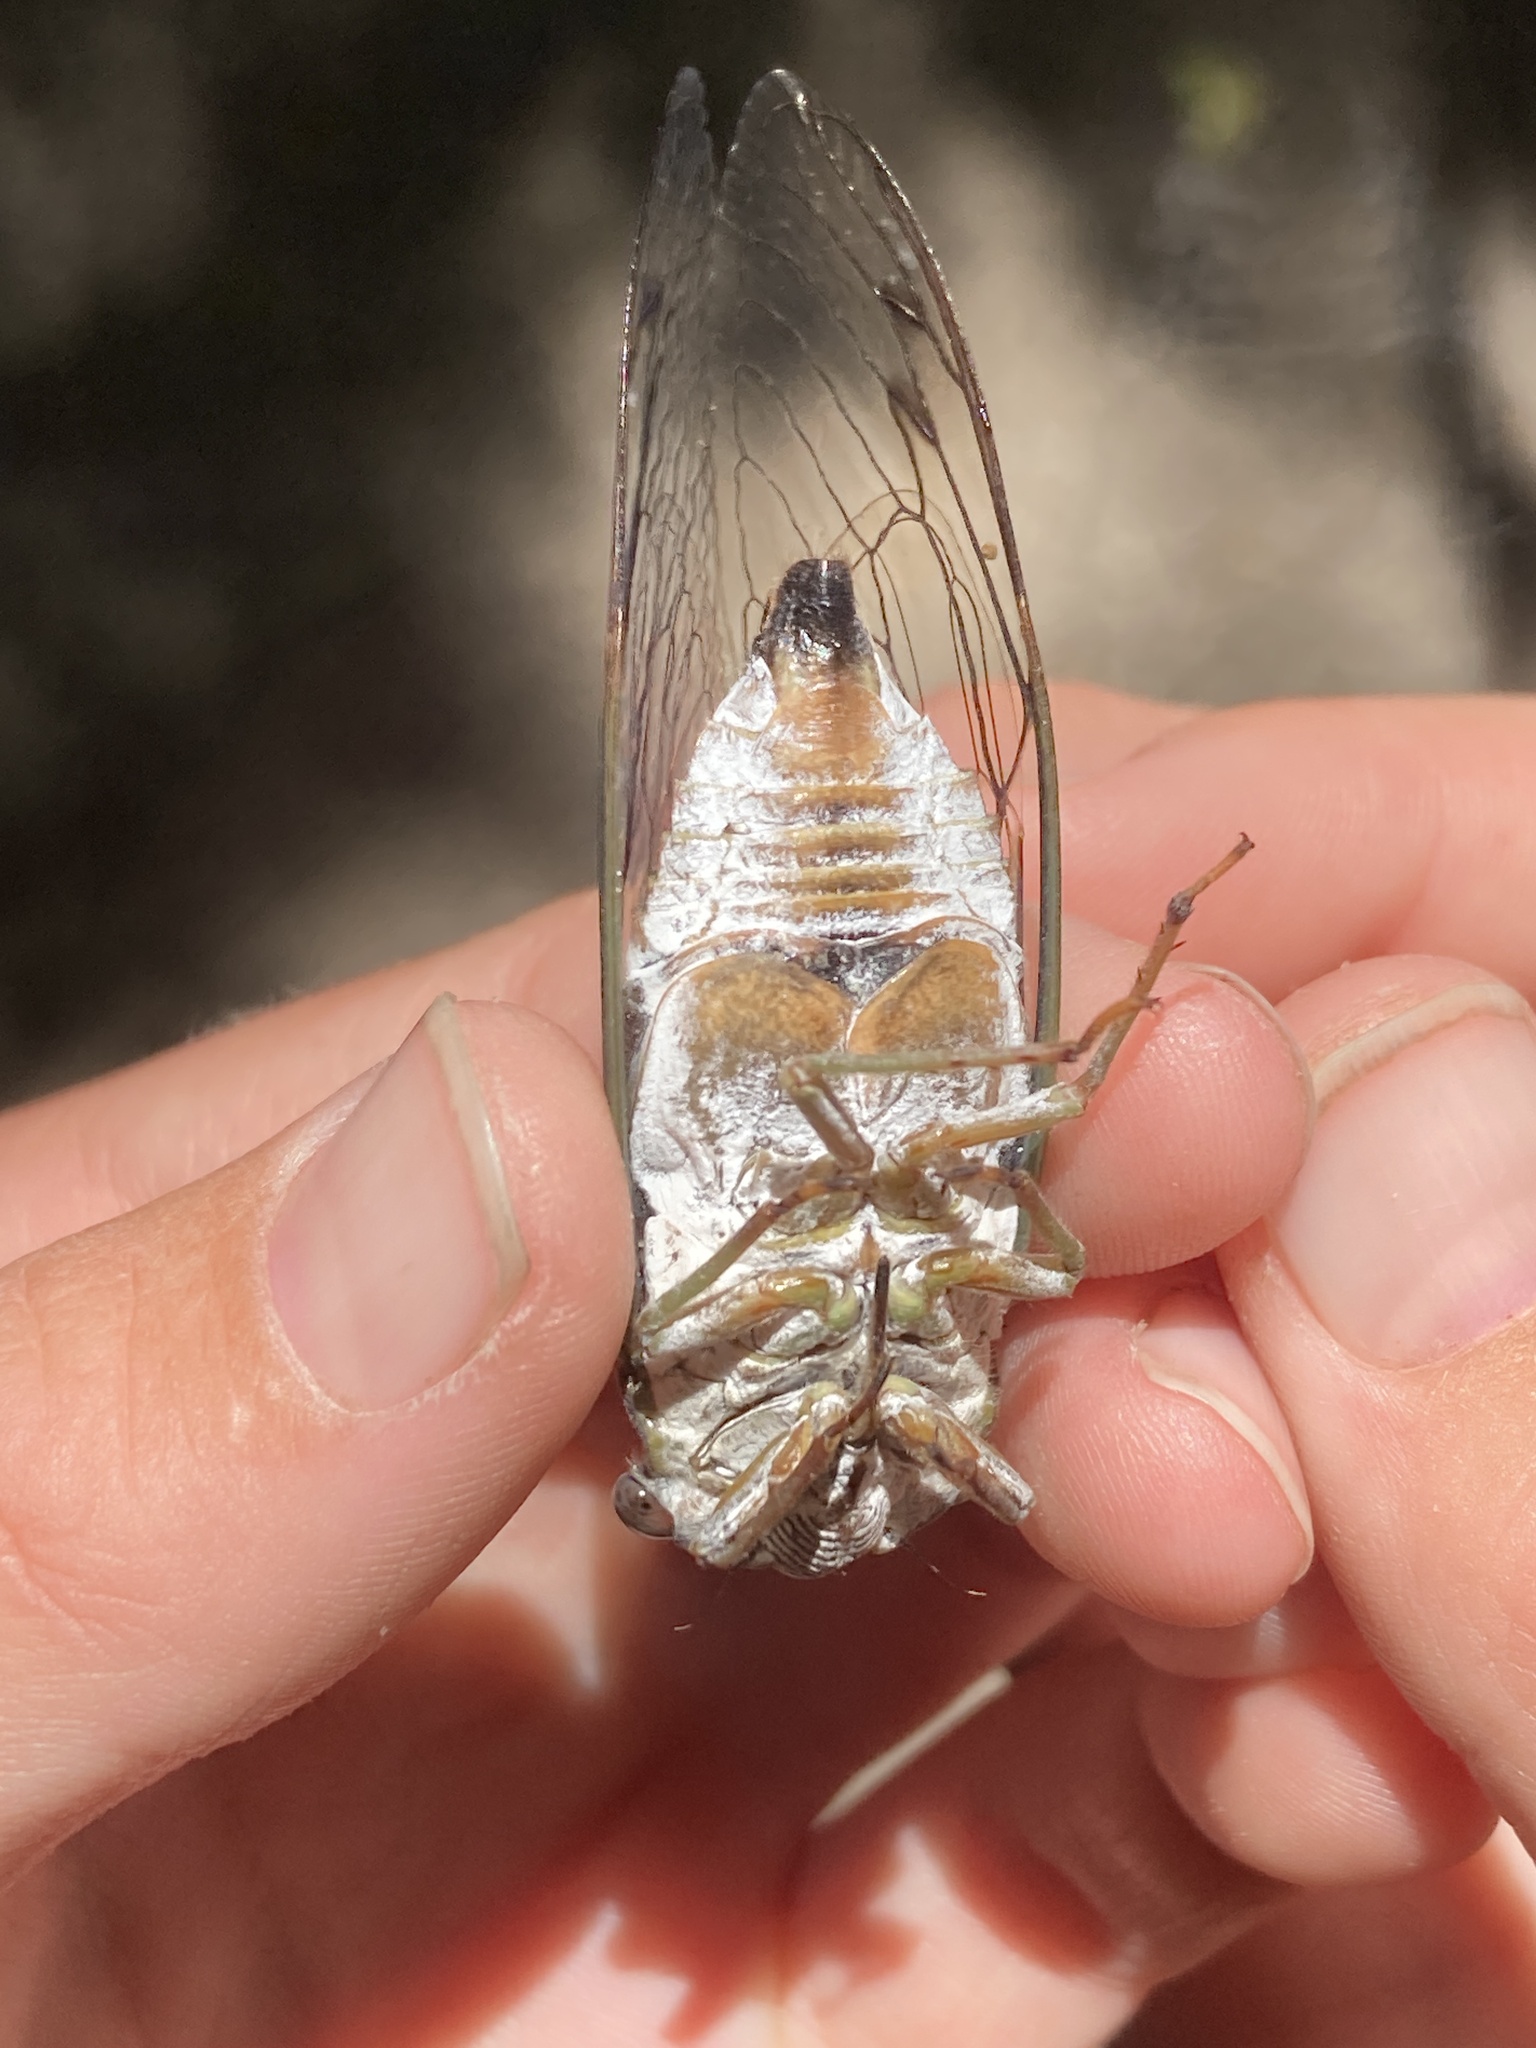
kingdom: Animalia
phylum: Arthropoda
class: Insecta
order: Hemiptera
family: Cicadidae
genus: Neotibicen
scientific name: Neotibicen pruinosus
